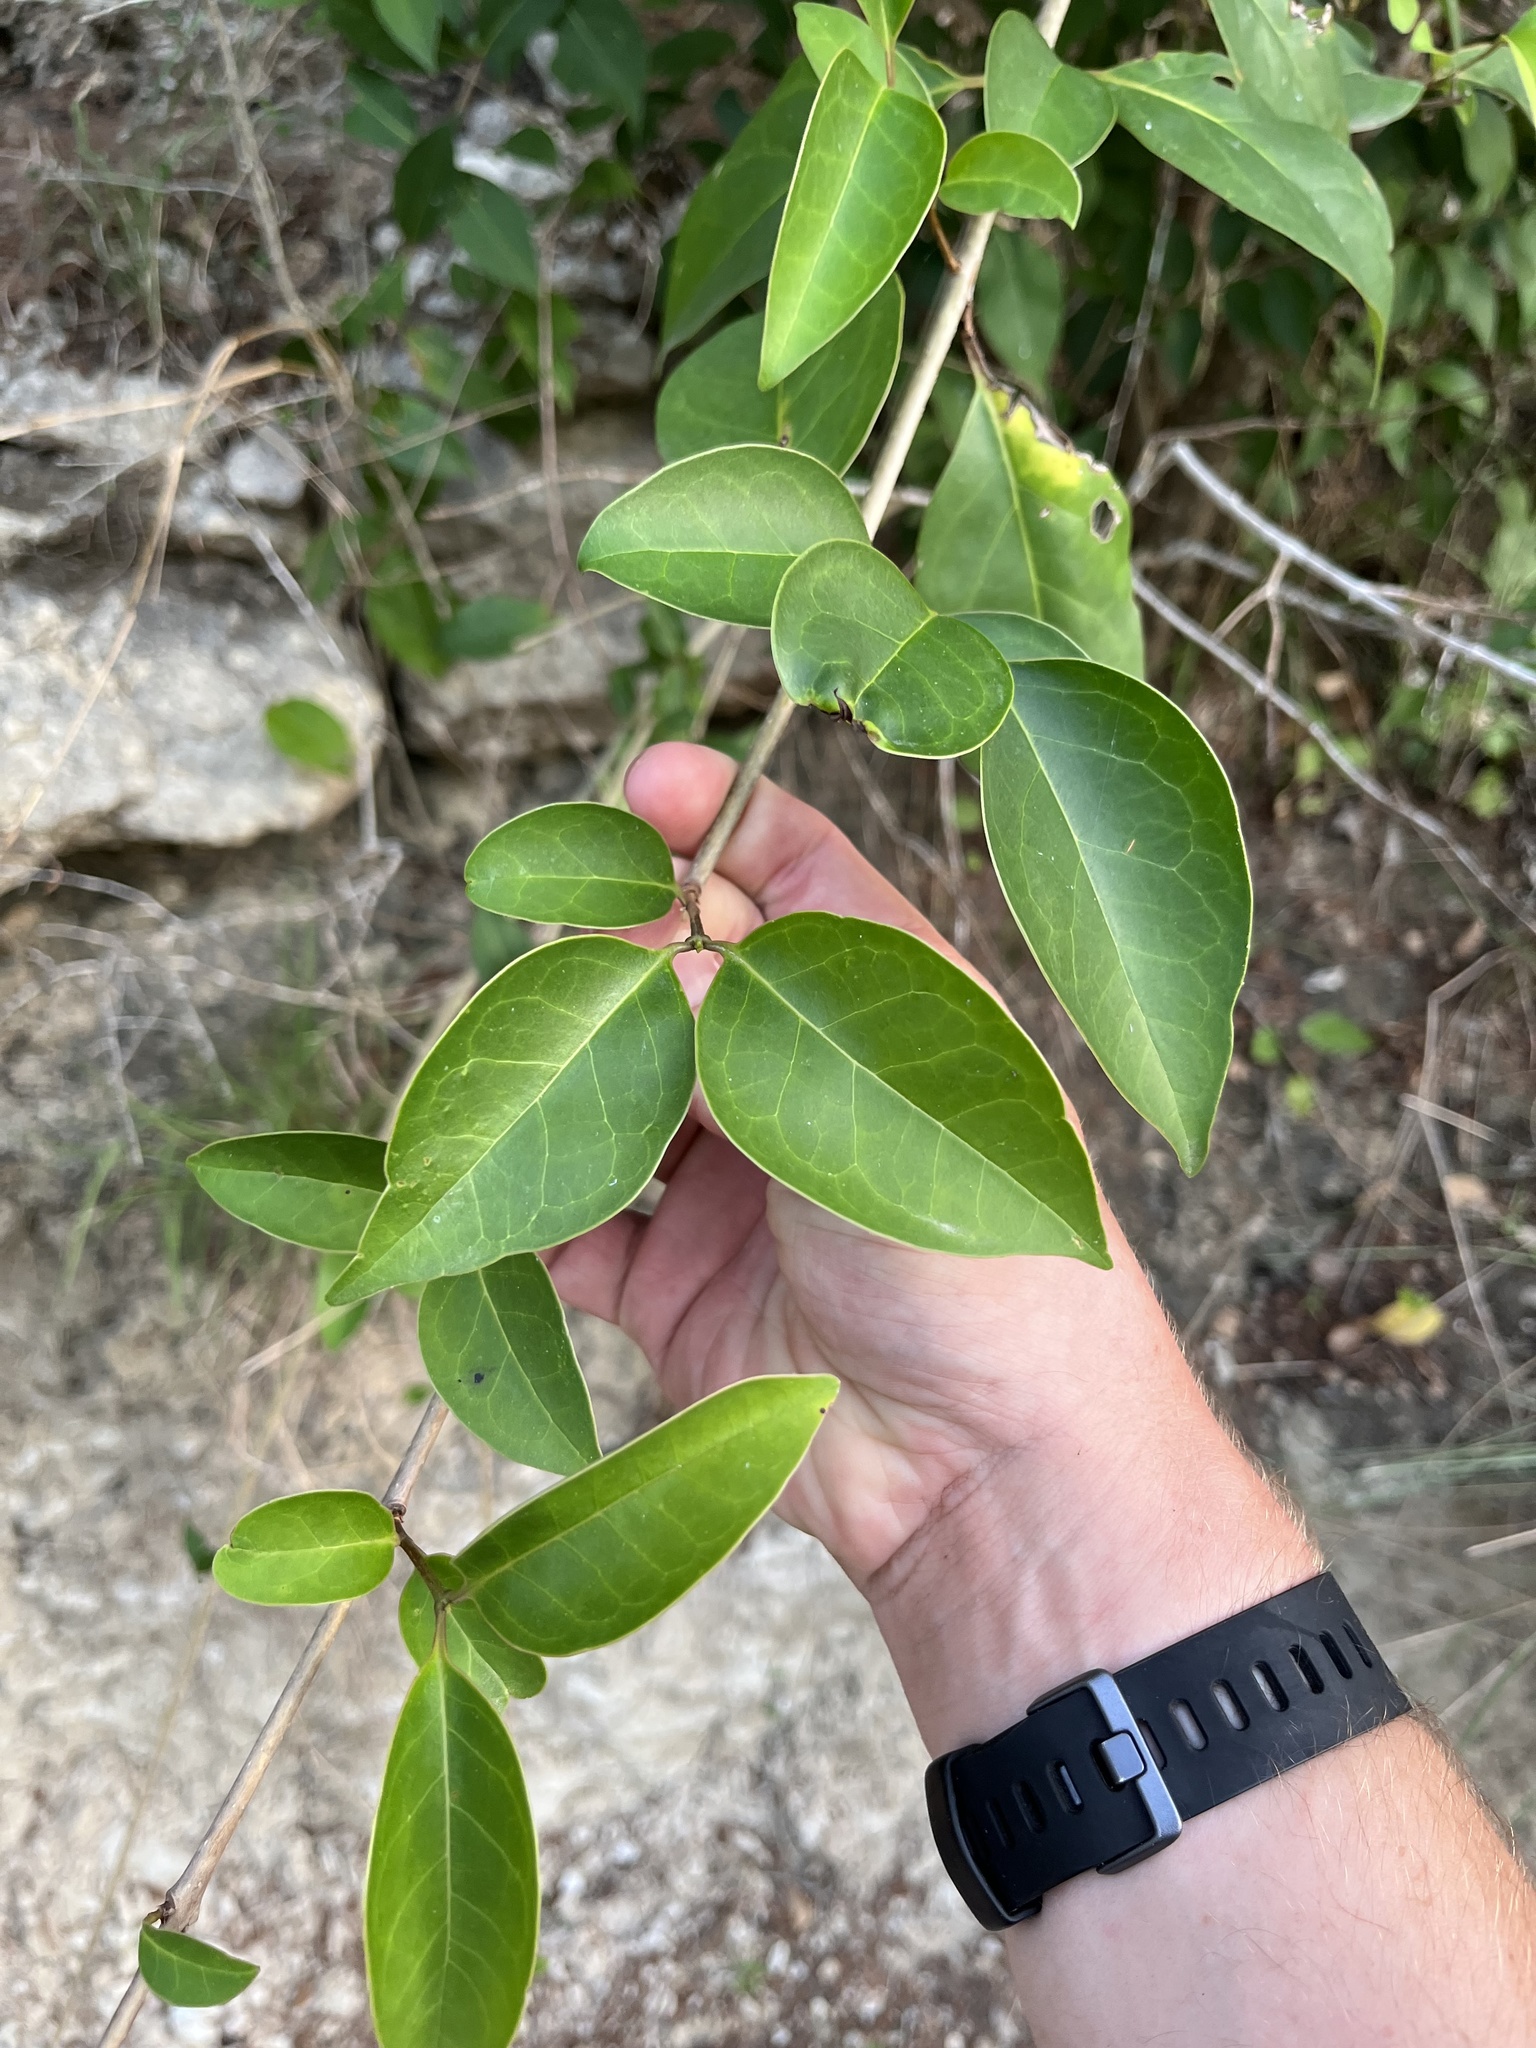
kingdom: Plantae
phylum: Tracheophyta
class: Magnoliopsida
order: Lamiales
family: Oleaceae
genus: Ligustrum
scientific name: Ligustrum lucidum
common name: Glossy privet
